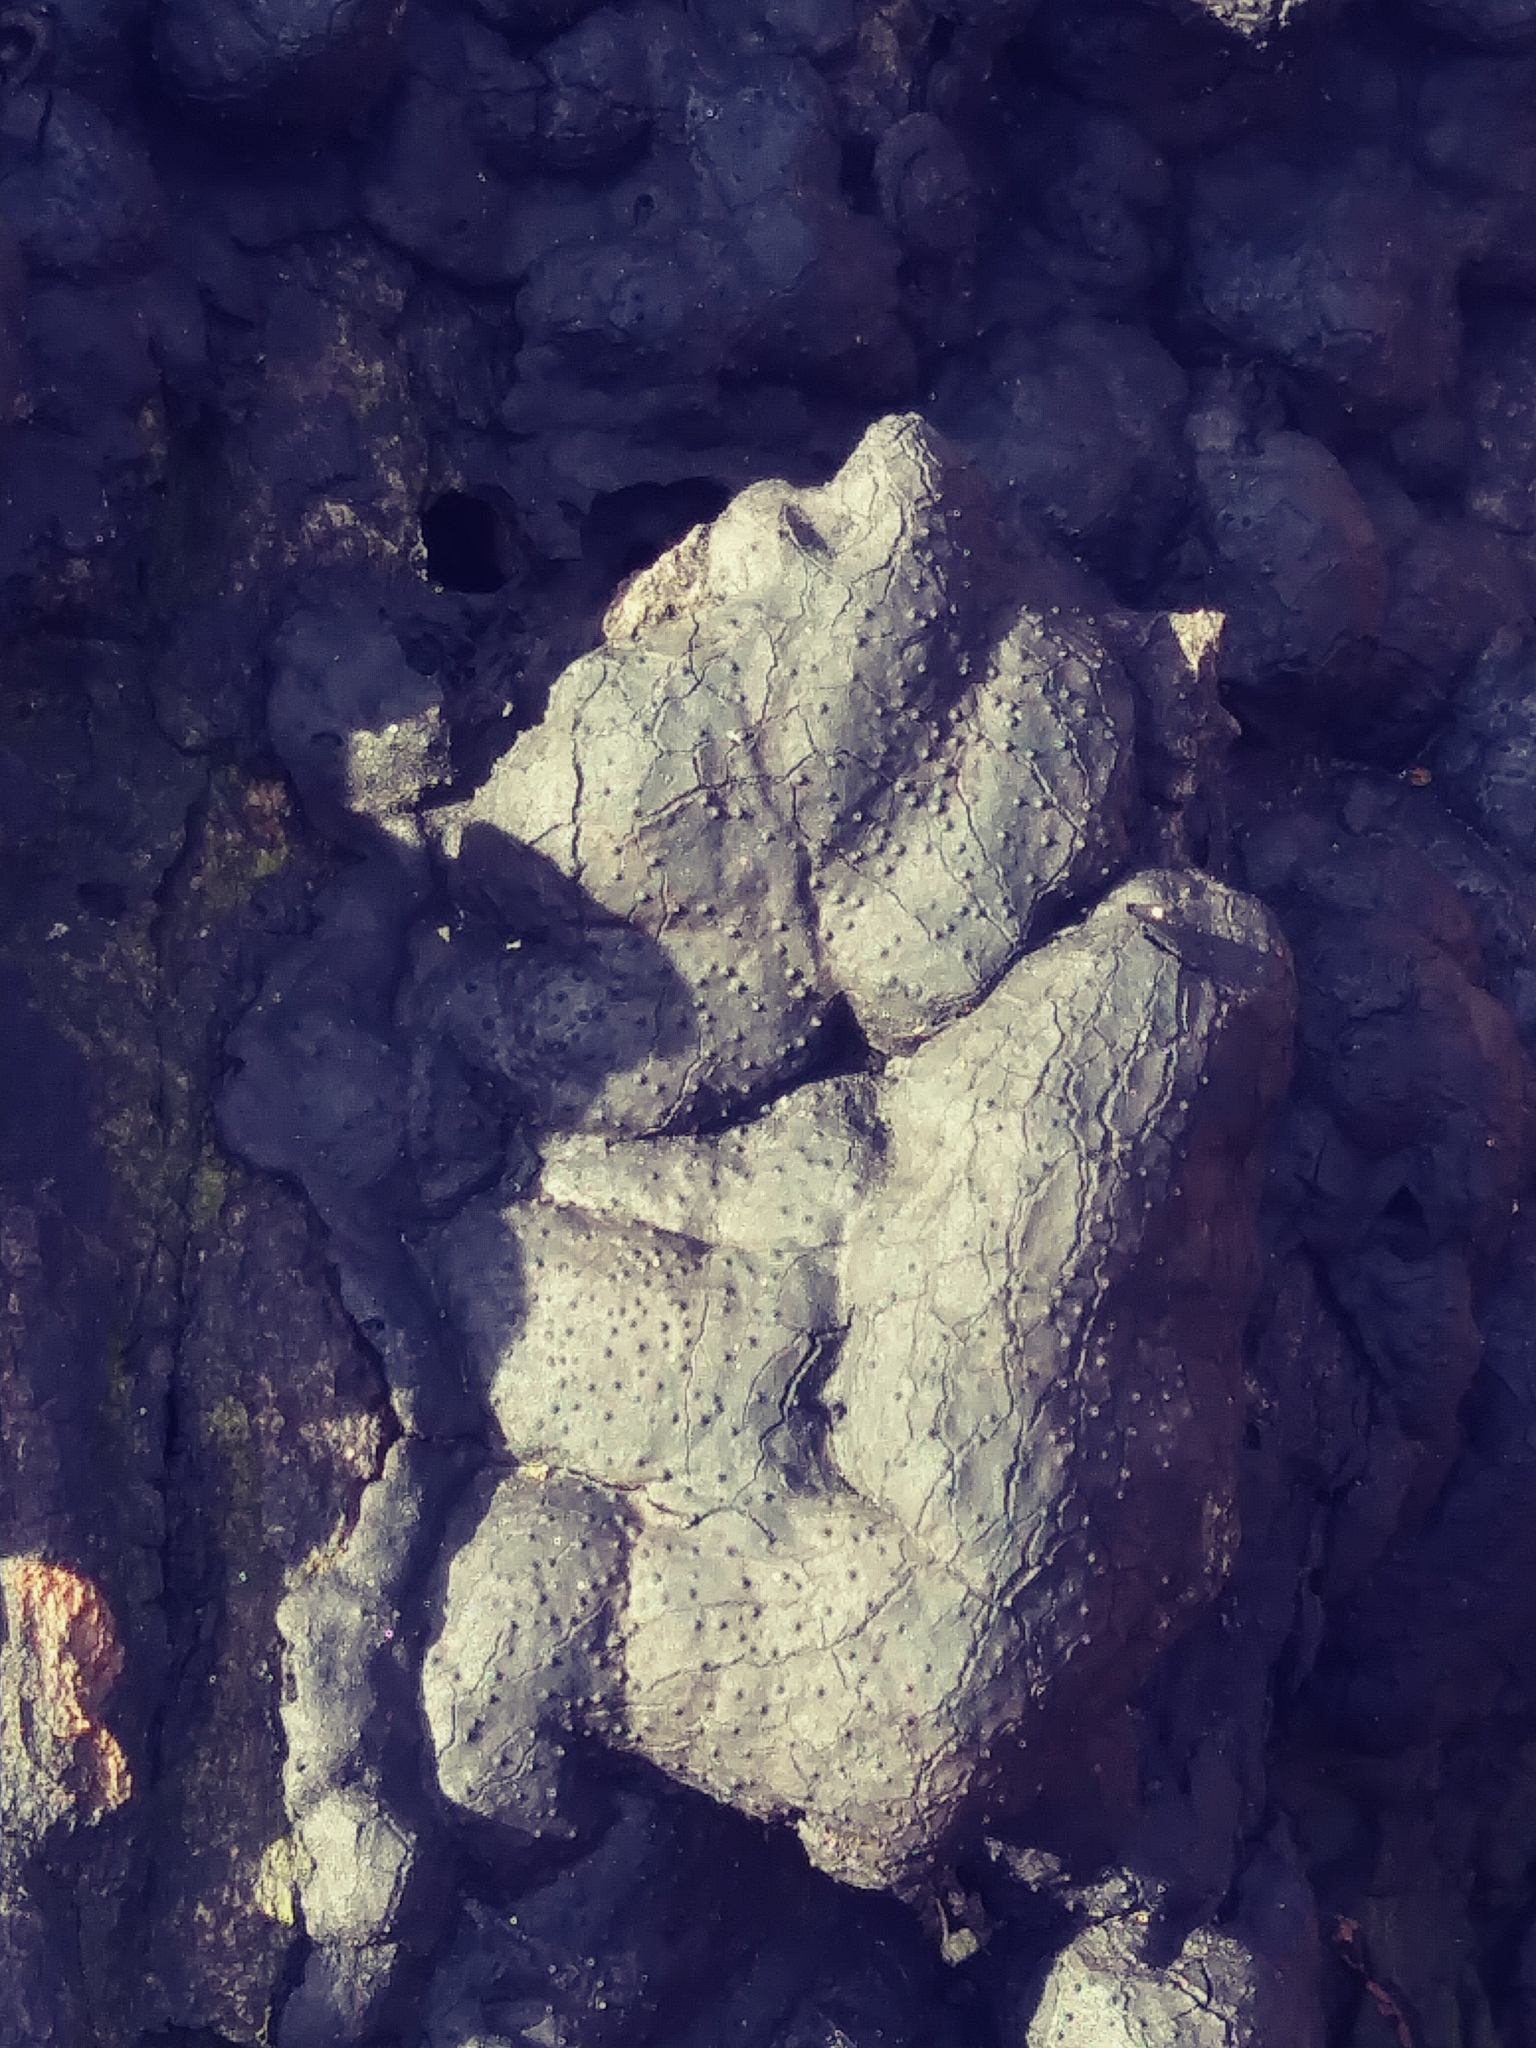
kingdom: Fungi
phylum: Ascomycota
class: Sordariomycetes
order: Xylariales
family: Xylariaceae
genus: Kretzschmaria
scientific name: Kretzschmaria deusta
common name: Brittle cinder
